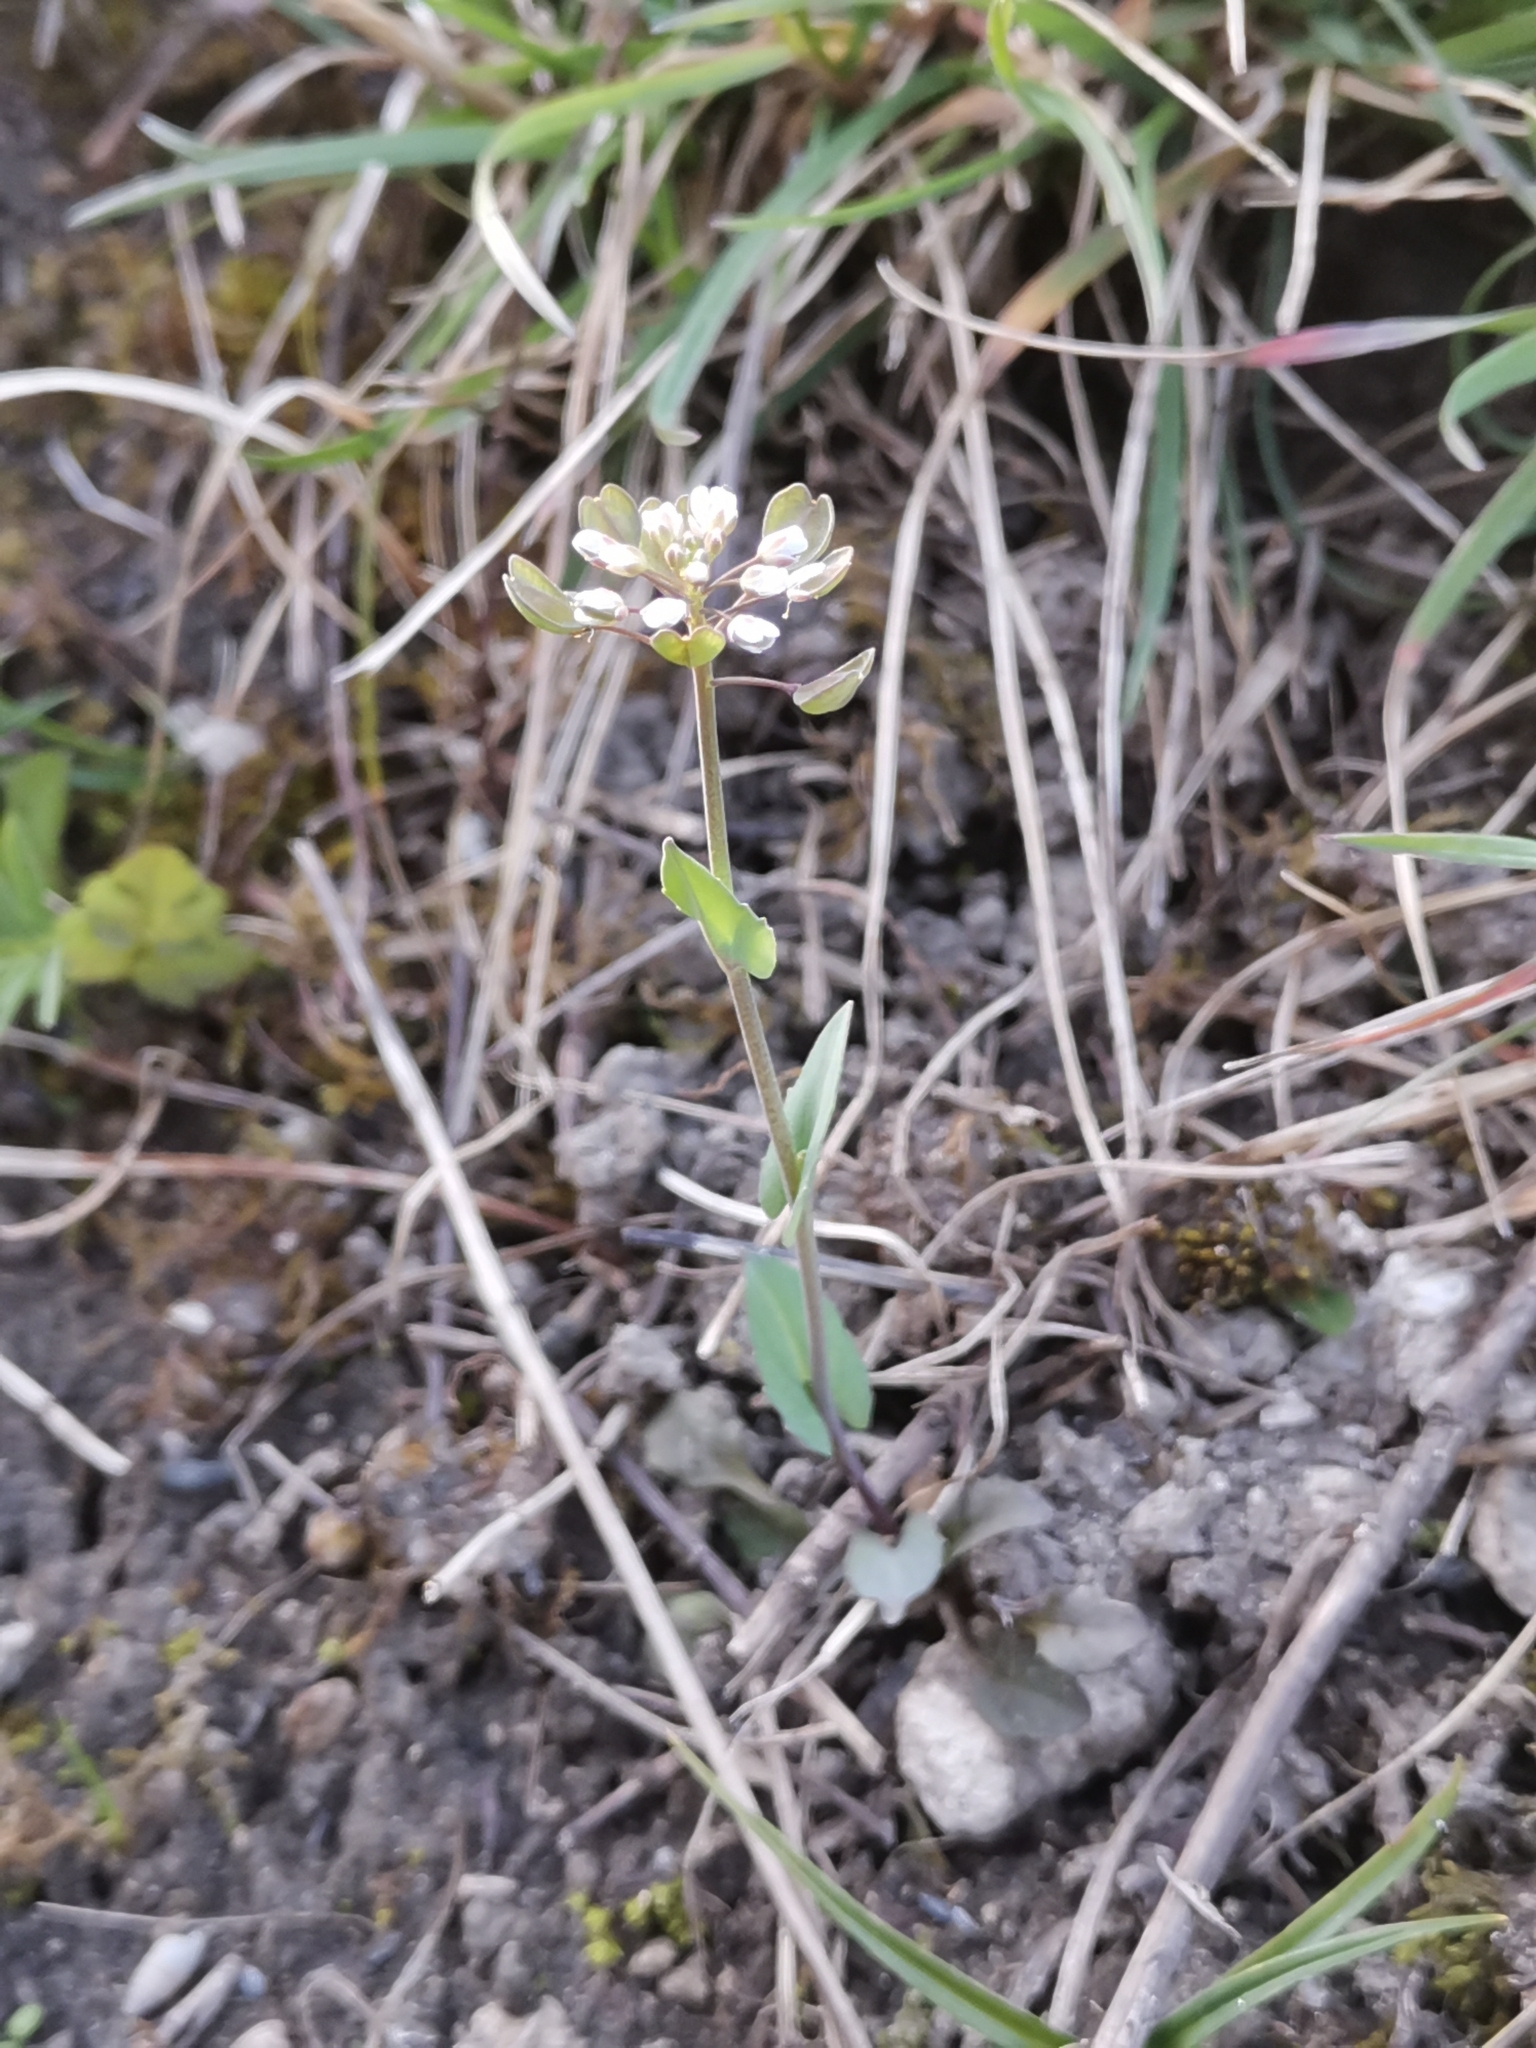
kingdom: Plantae
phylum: Tracheophyta
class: Magnoliopsida
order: Brassicales
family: Brassicaceae
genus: Noccaea
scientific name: Noccaea perfoliata
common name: Perfoliate pennycress
